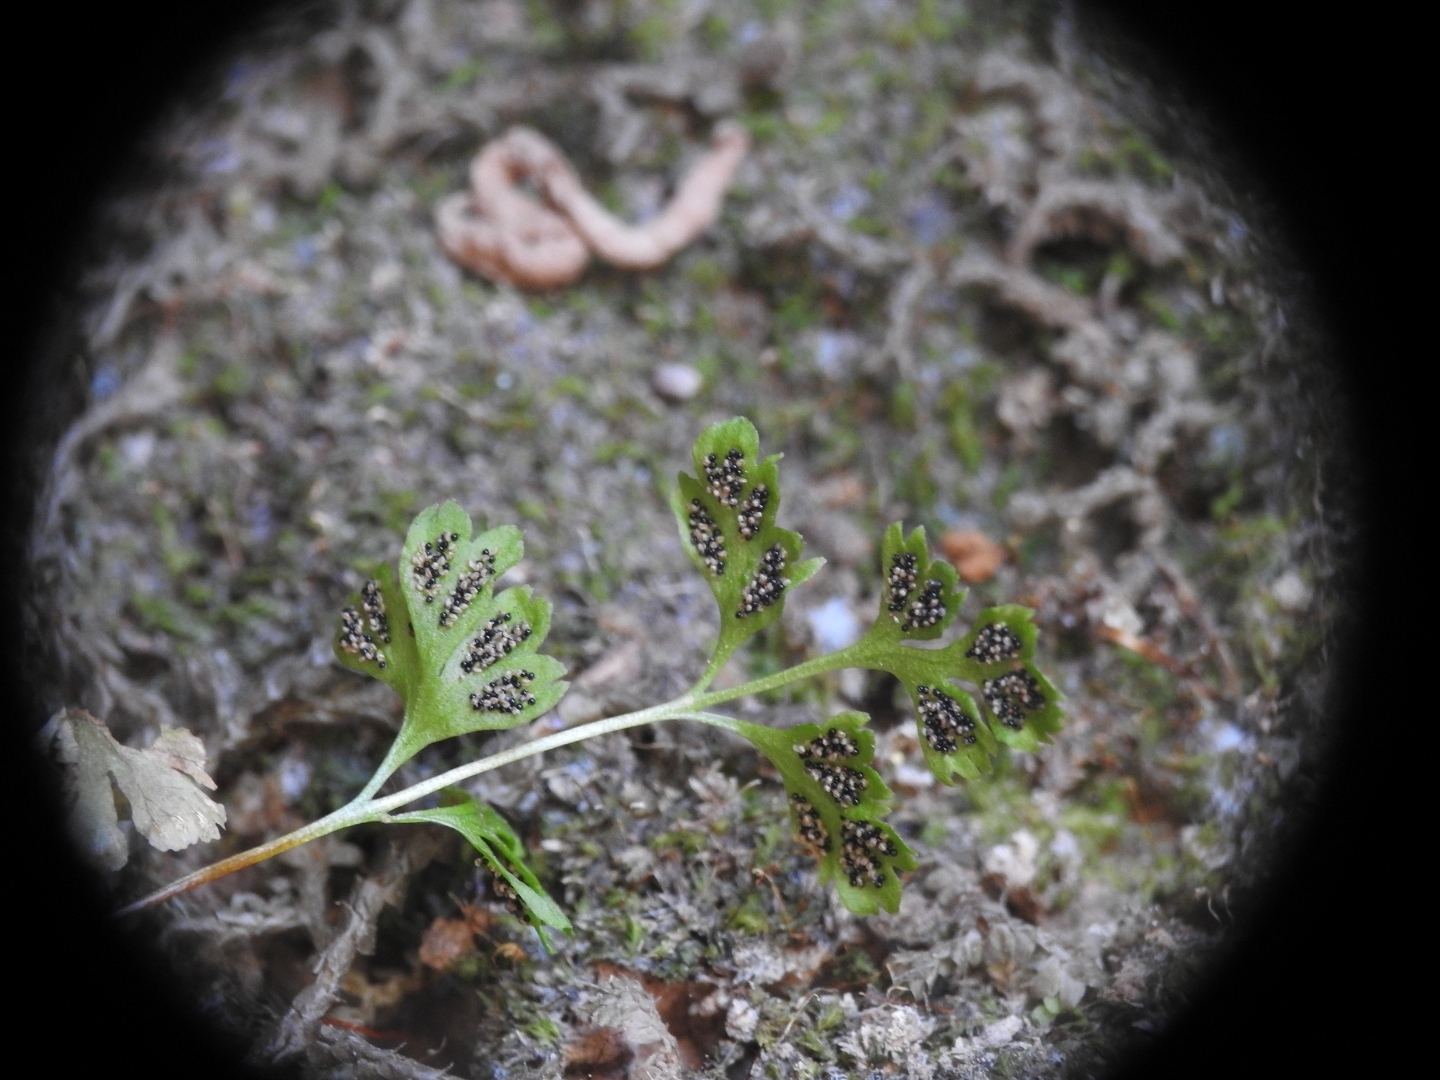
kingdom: Plantae
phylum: Tracheophyta
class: Polypodiopsida
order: Polypodiales
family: Pteridaceae
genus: Anogramma
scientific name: Anogramma leptophylla
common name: Jersey fern
